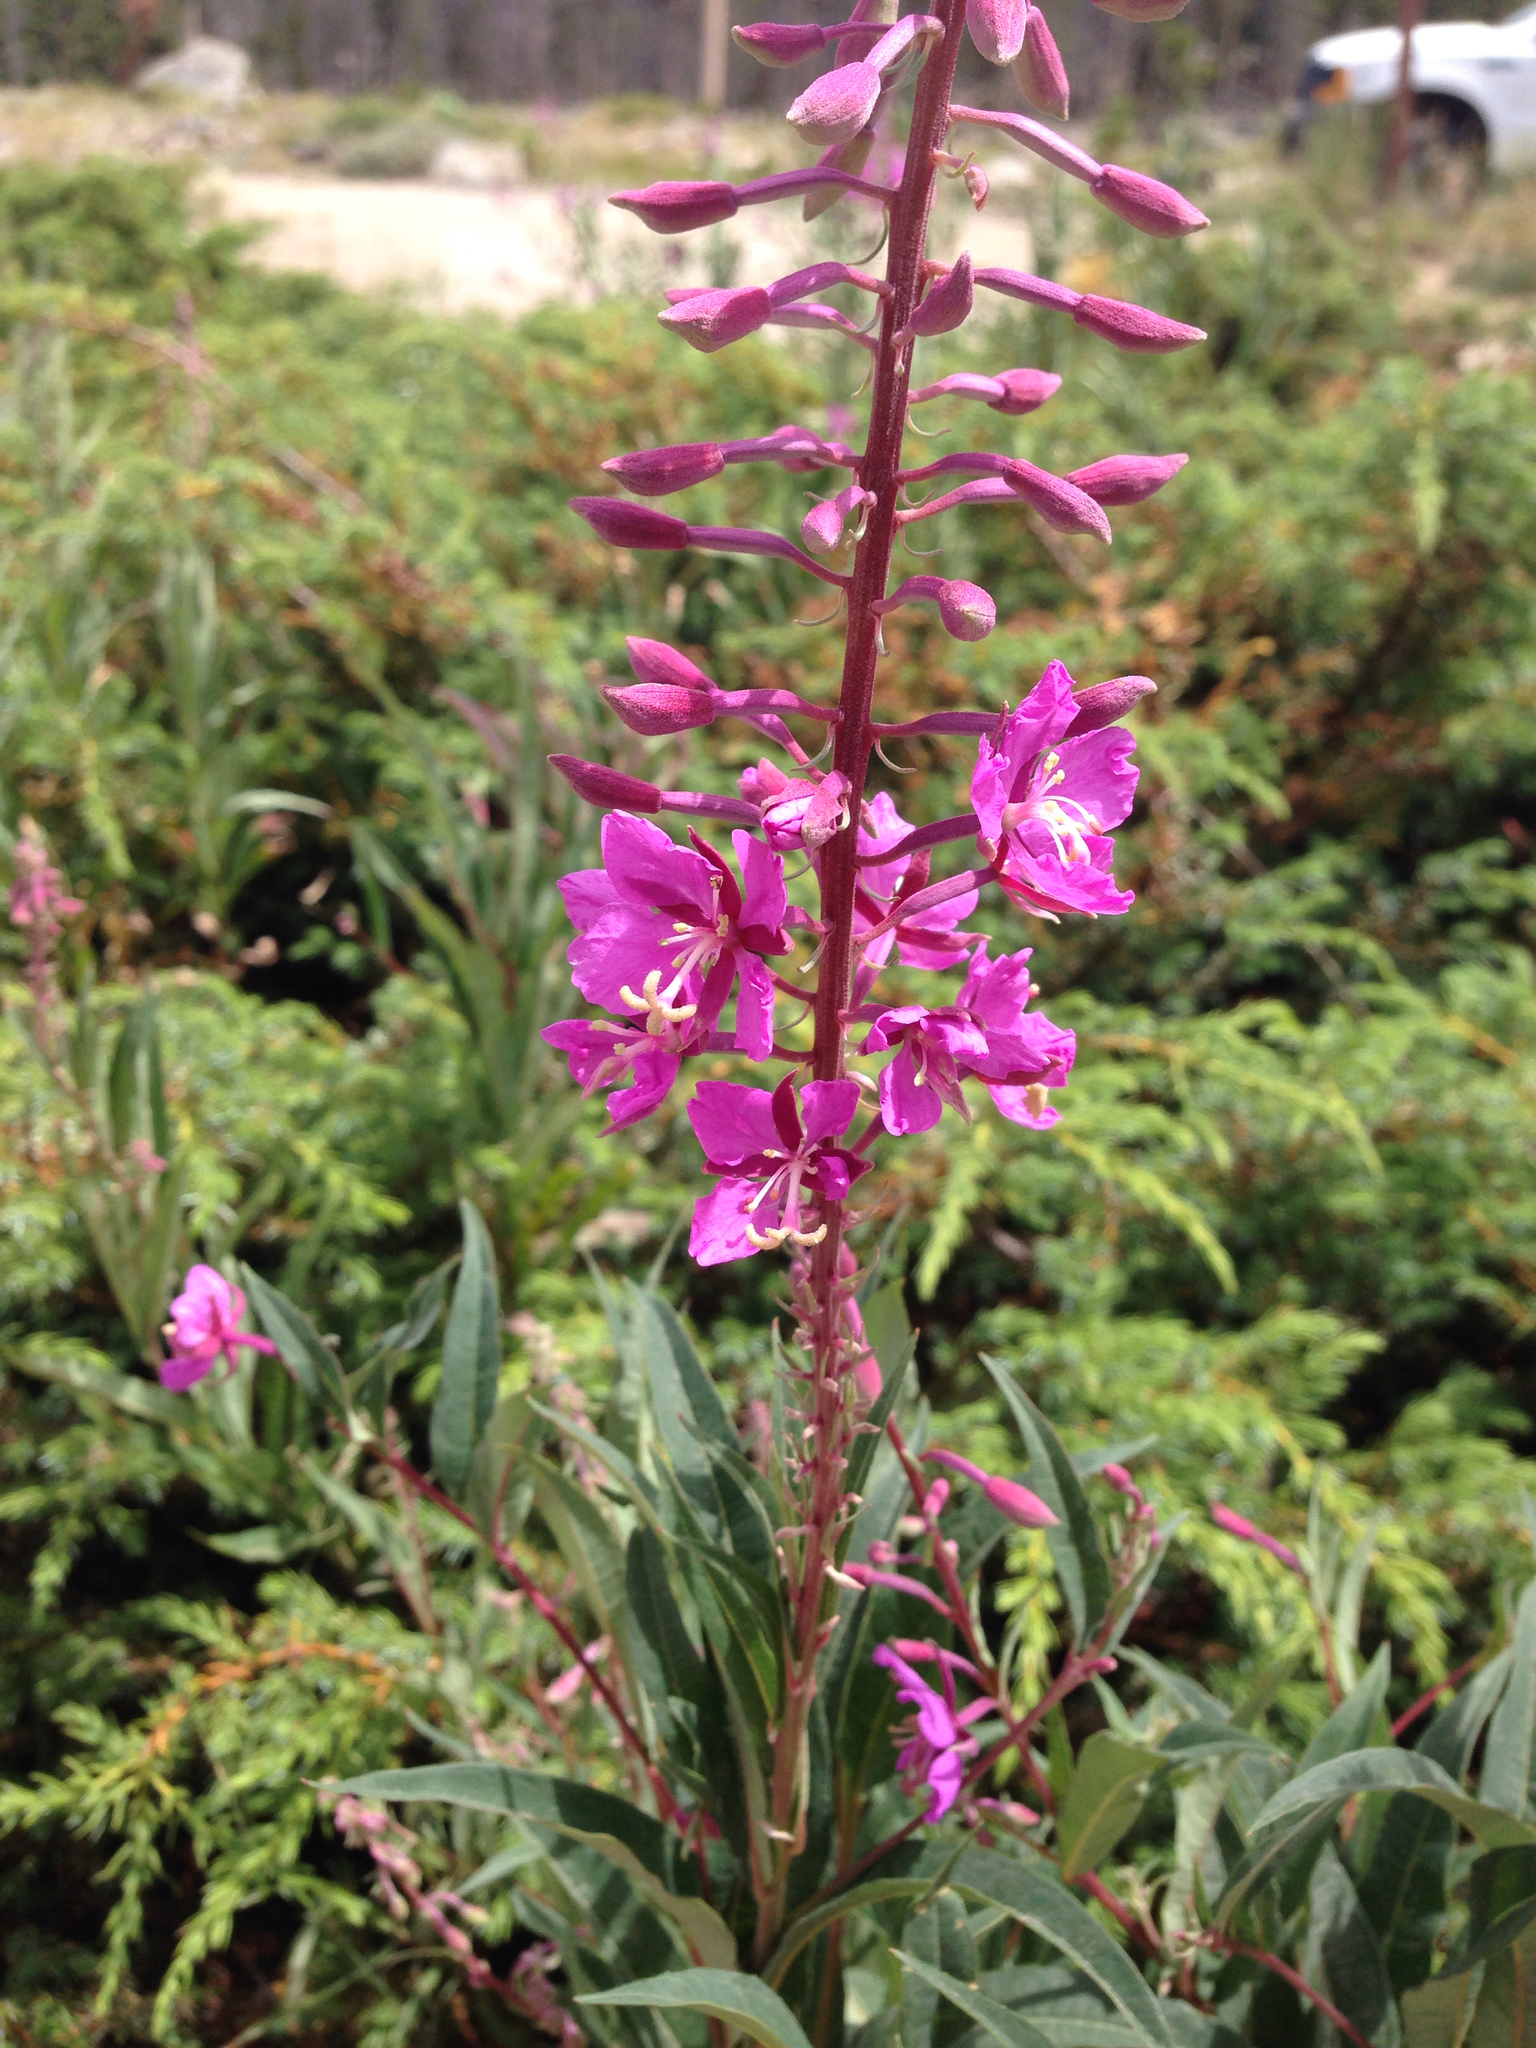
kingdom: Plantae
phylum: Tracheophyta
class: Magnoliopsida
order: Myrtales
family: Onagraceae
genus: Chamaenerion
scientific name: Chamaenerion angustifolium
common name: Fireweed
